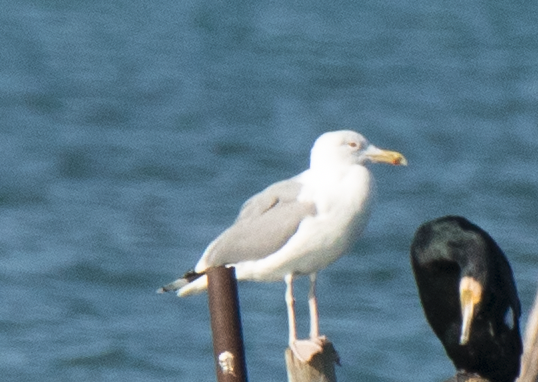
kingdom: Animalia
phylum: Chordata
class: Aves
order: Charadriiformes
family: Laridae
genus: Larus
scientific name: Larus cachinnans
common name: Caspian gull
